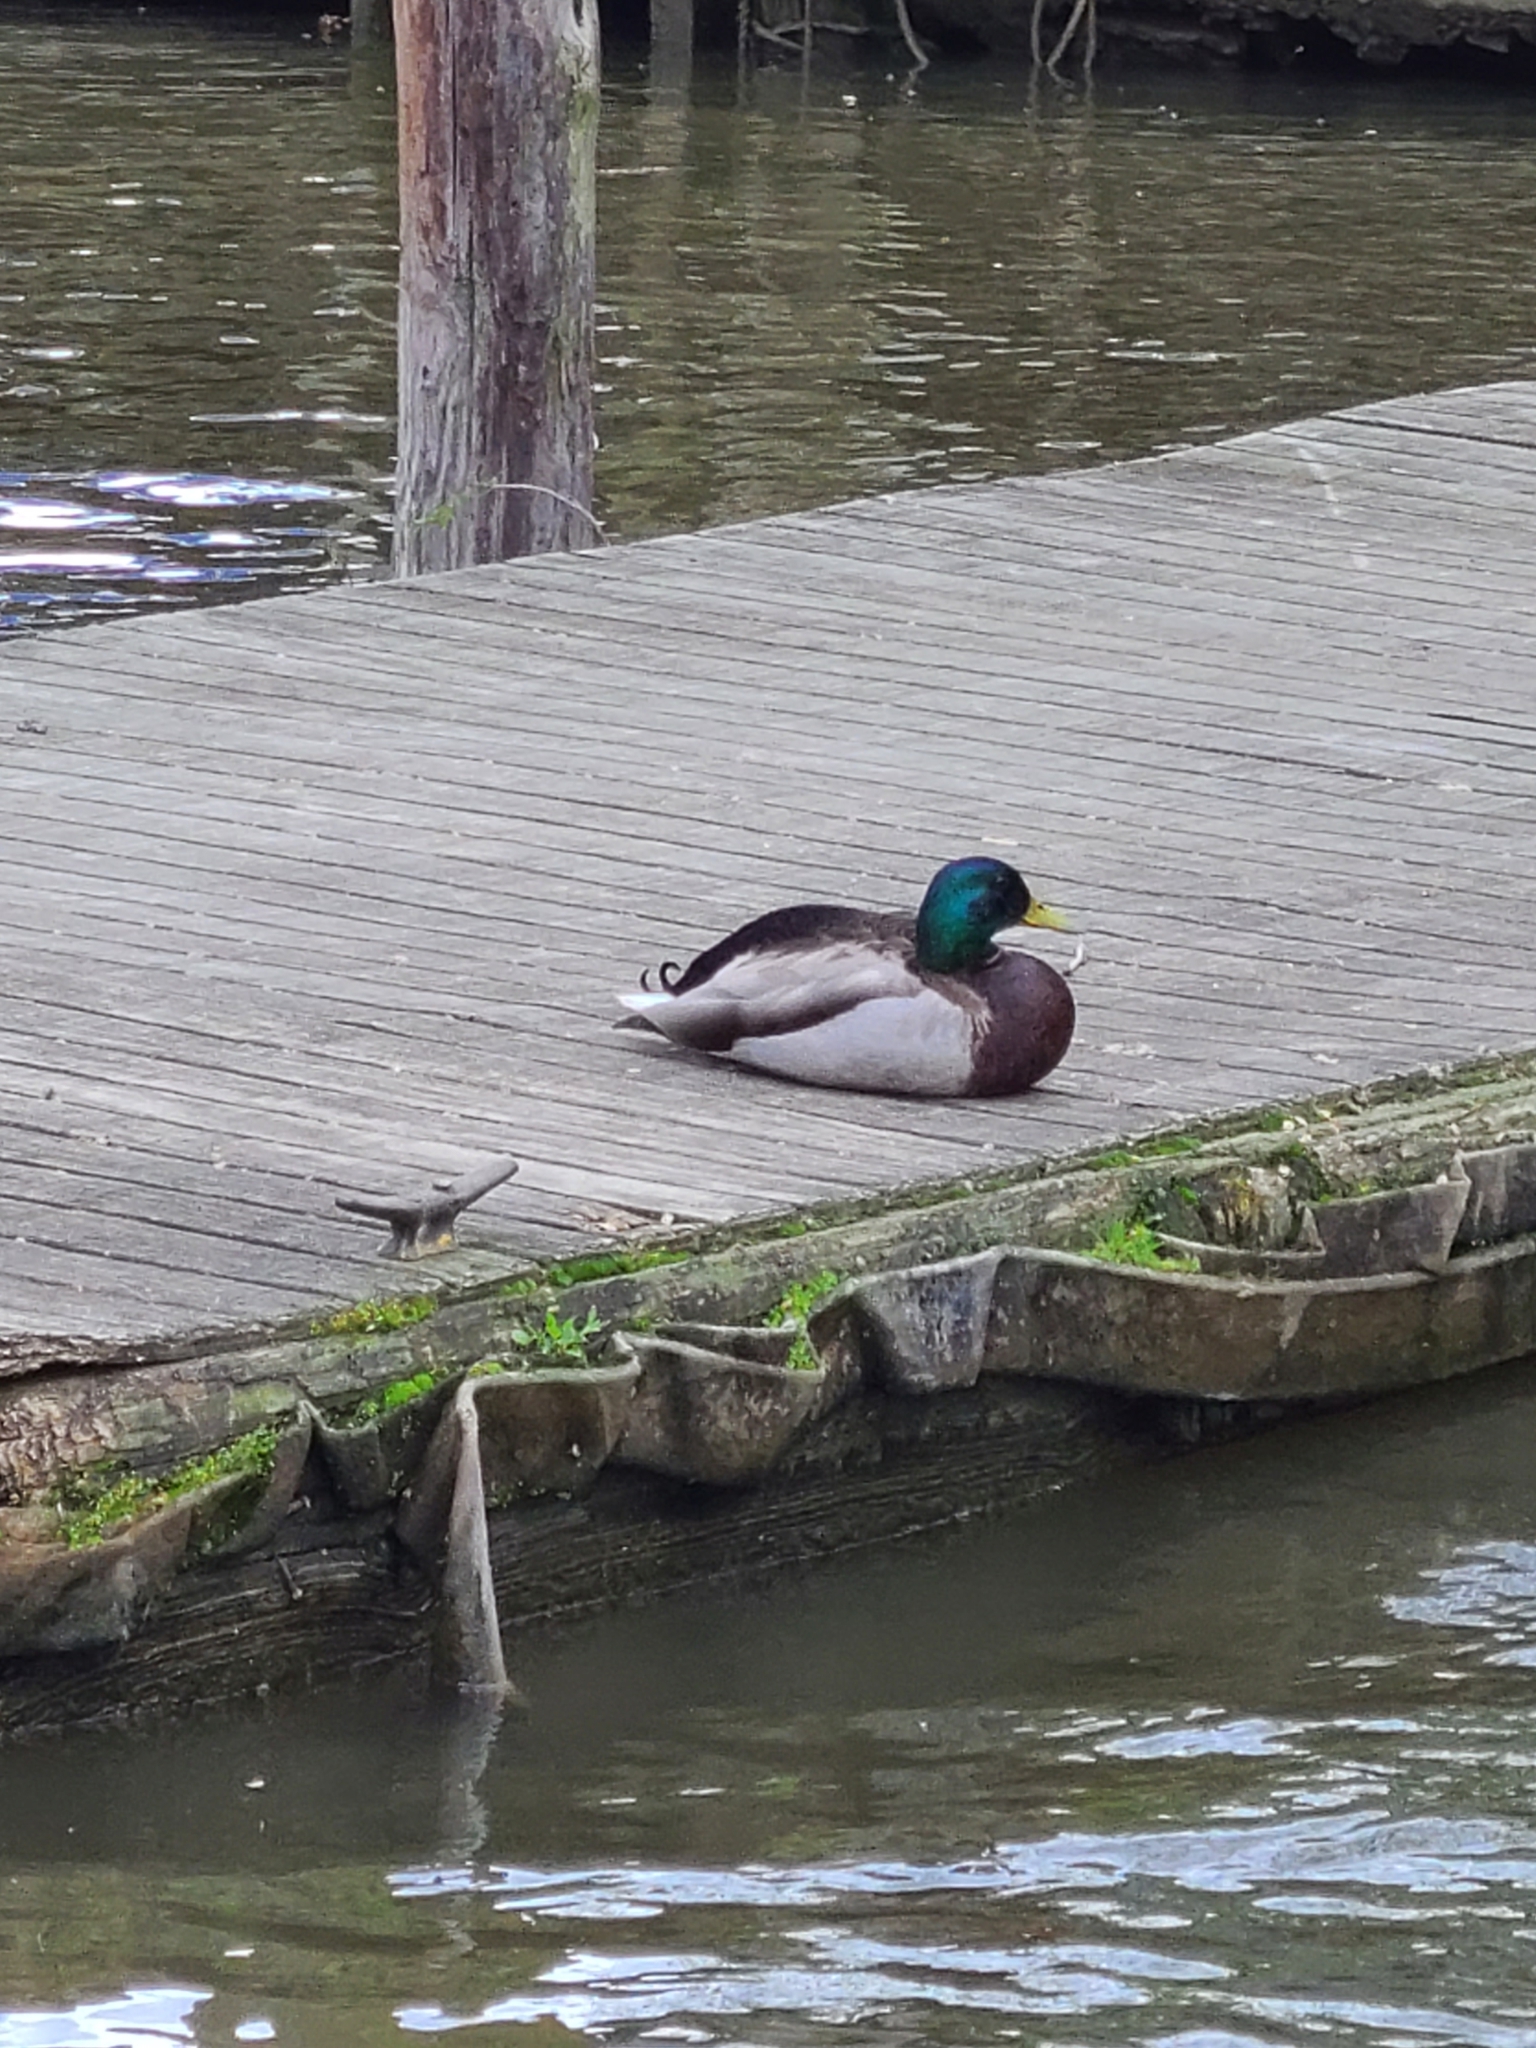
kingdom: Animalia
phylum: Chordata
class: Aves
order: Anseriformes
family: Anatidae
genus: Anas
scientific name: Anas platyrhynchos
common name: Mallard
